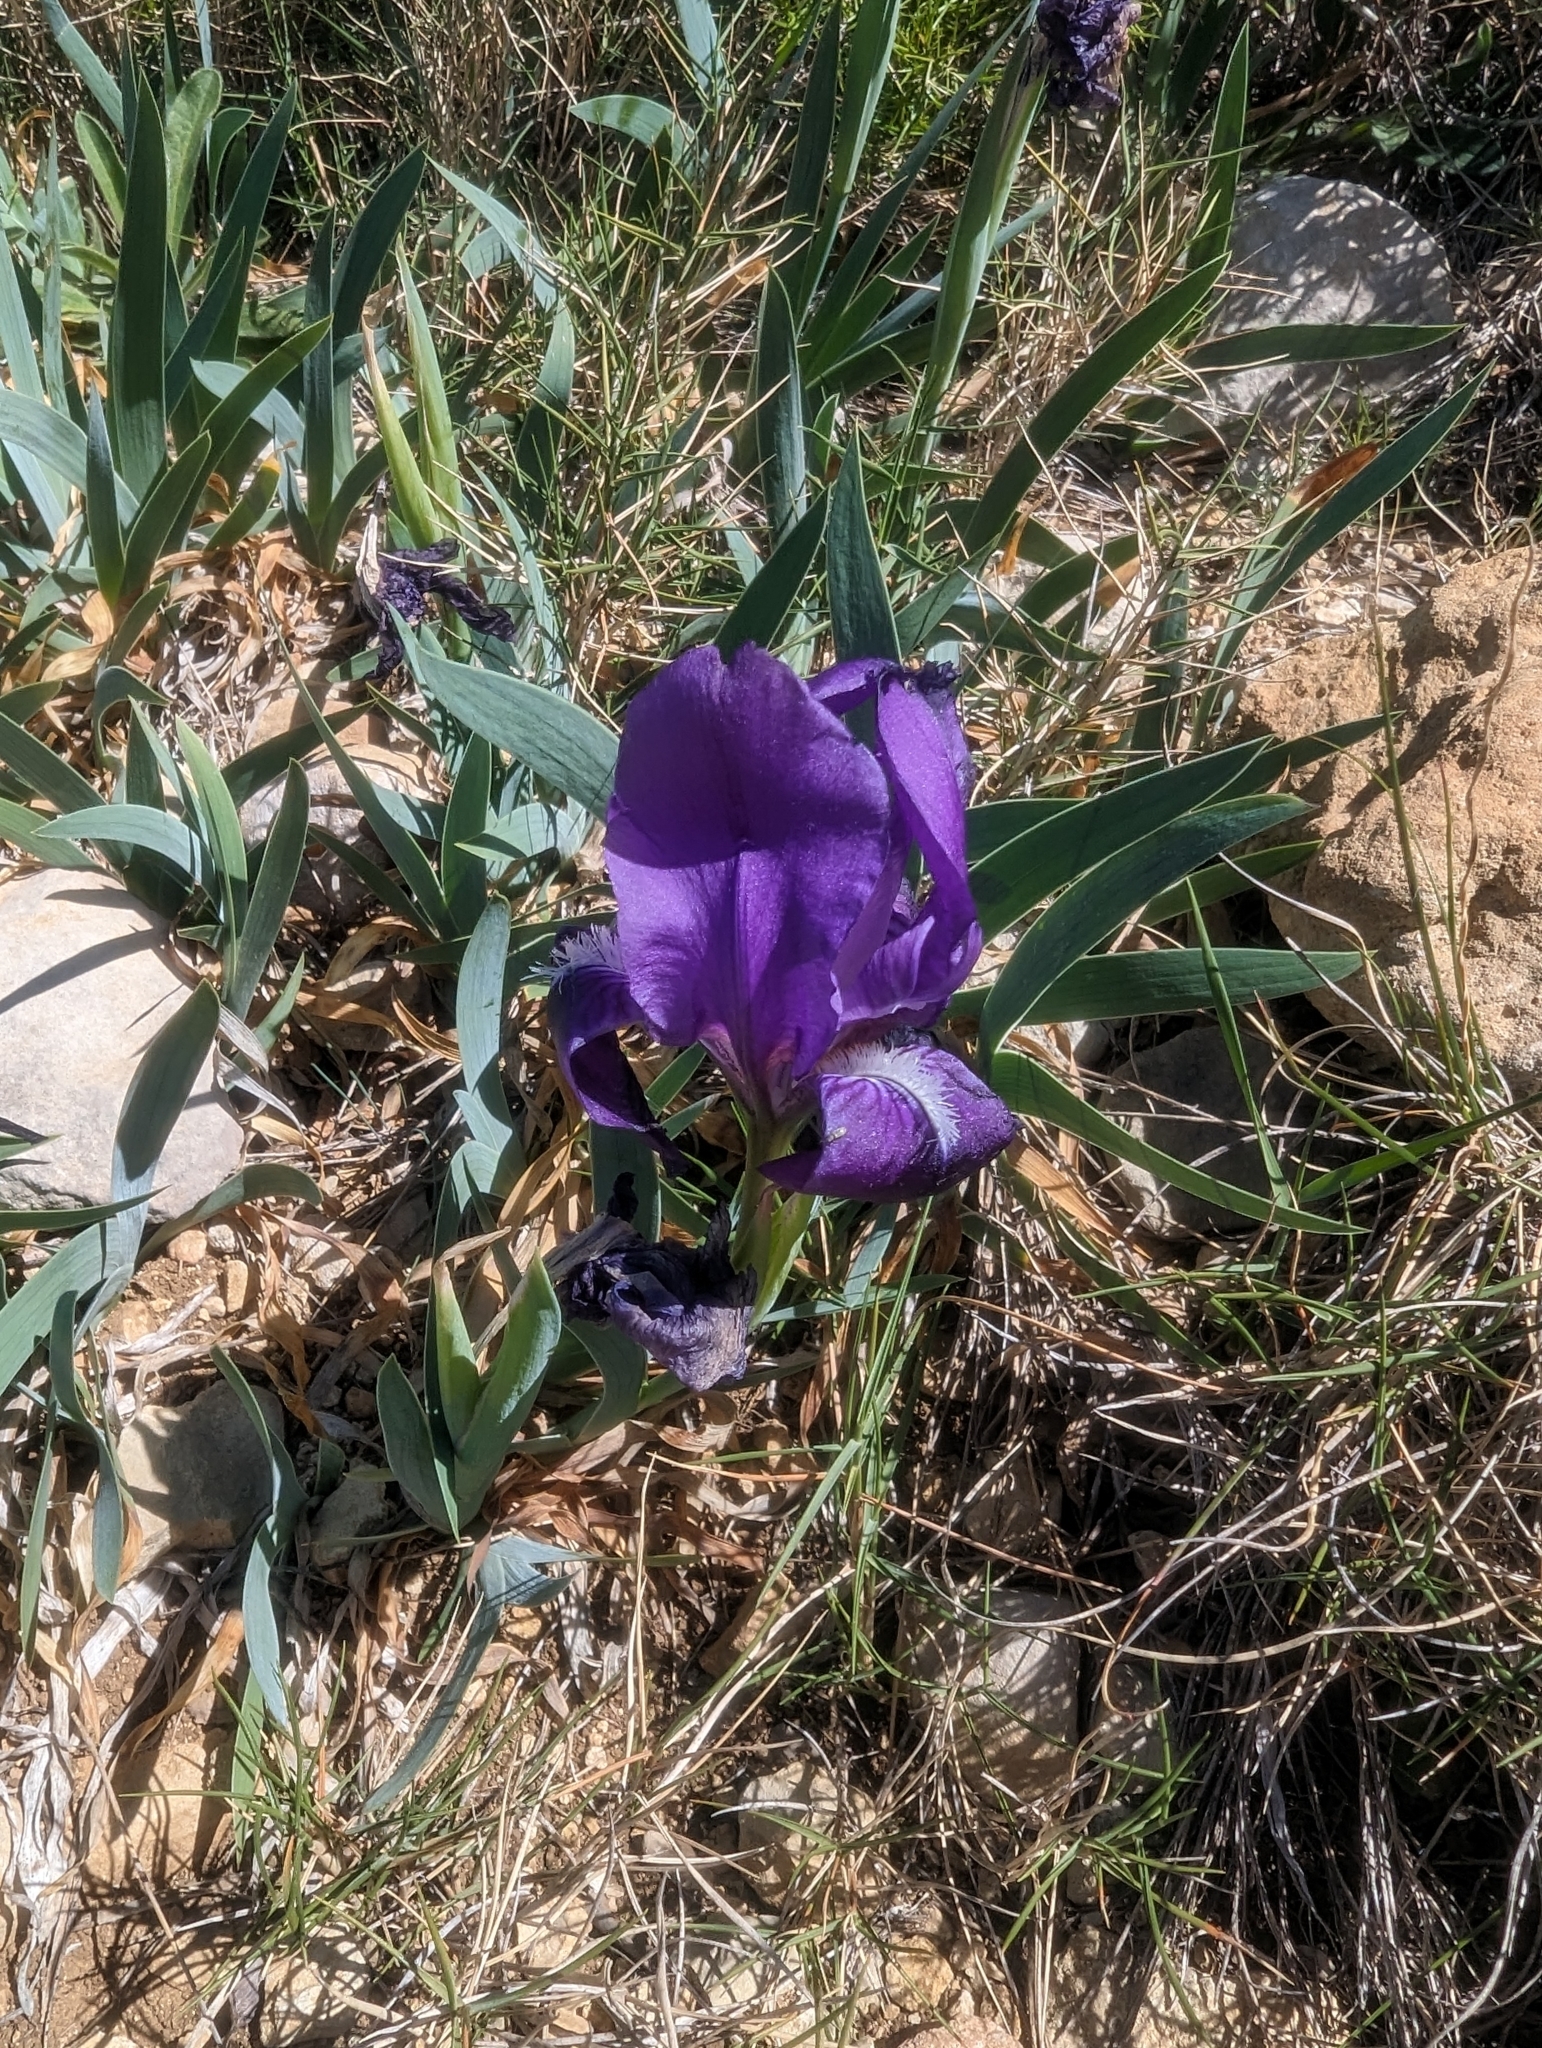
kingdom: Plantae
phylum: Tracheophyta
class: Liliopsida
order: Asparagales
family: Iridaceae
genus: Iris
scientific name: Iris lutescens
